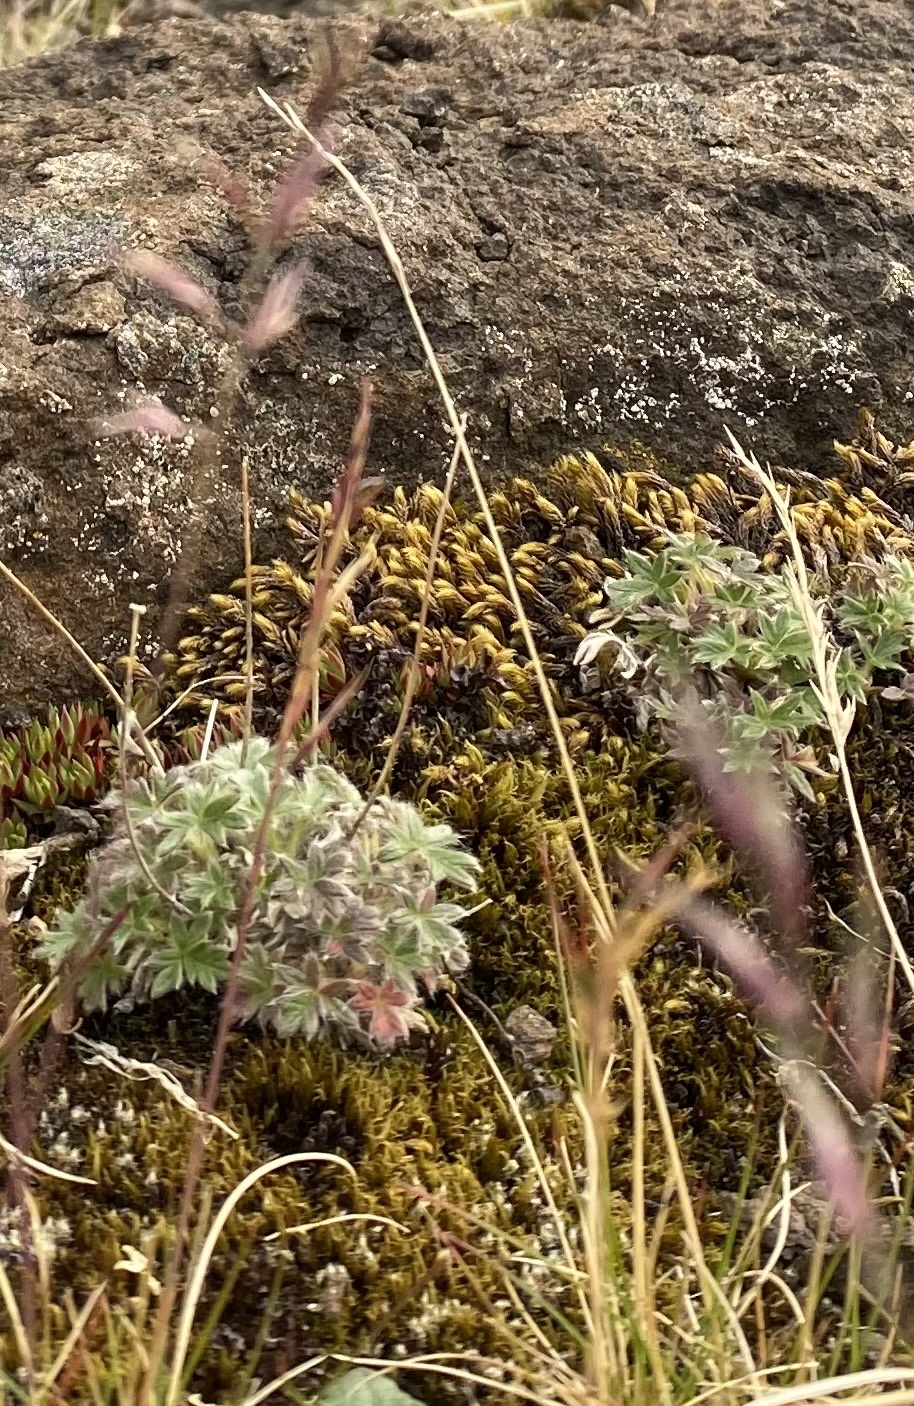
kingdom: Plantae
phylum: Tracheophyta
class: Magnoliopsida
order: Rosales
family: Rosaceae
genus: Potentilla
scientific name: Potentilla uniflora
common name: One-flowered cinquefoil
